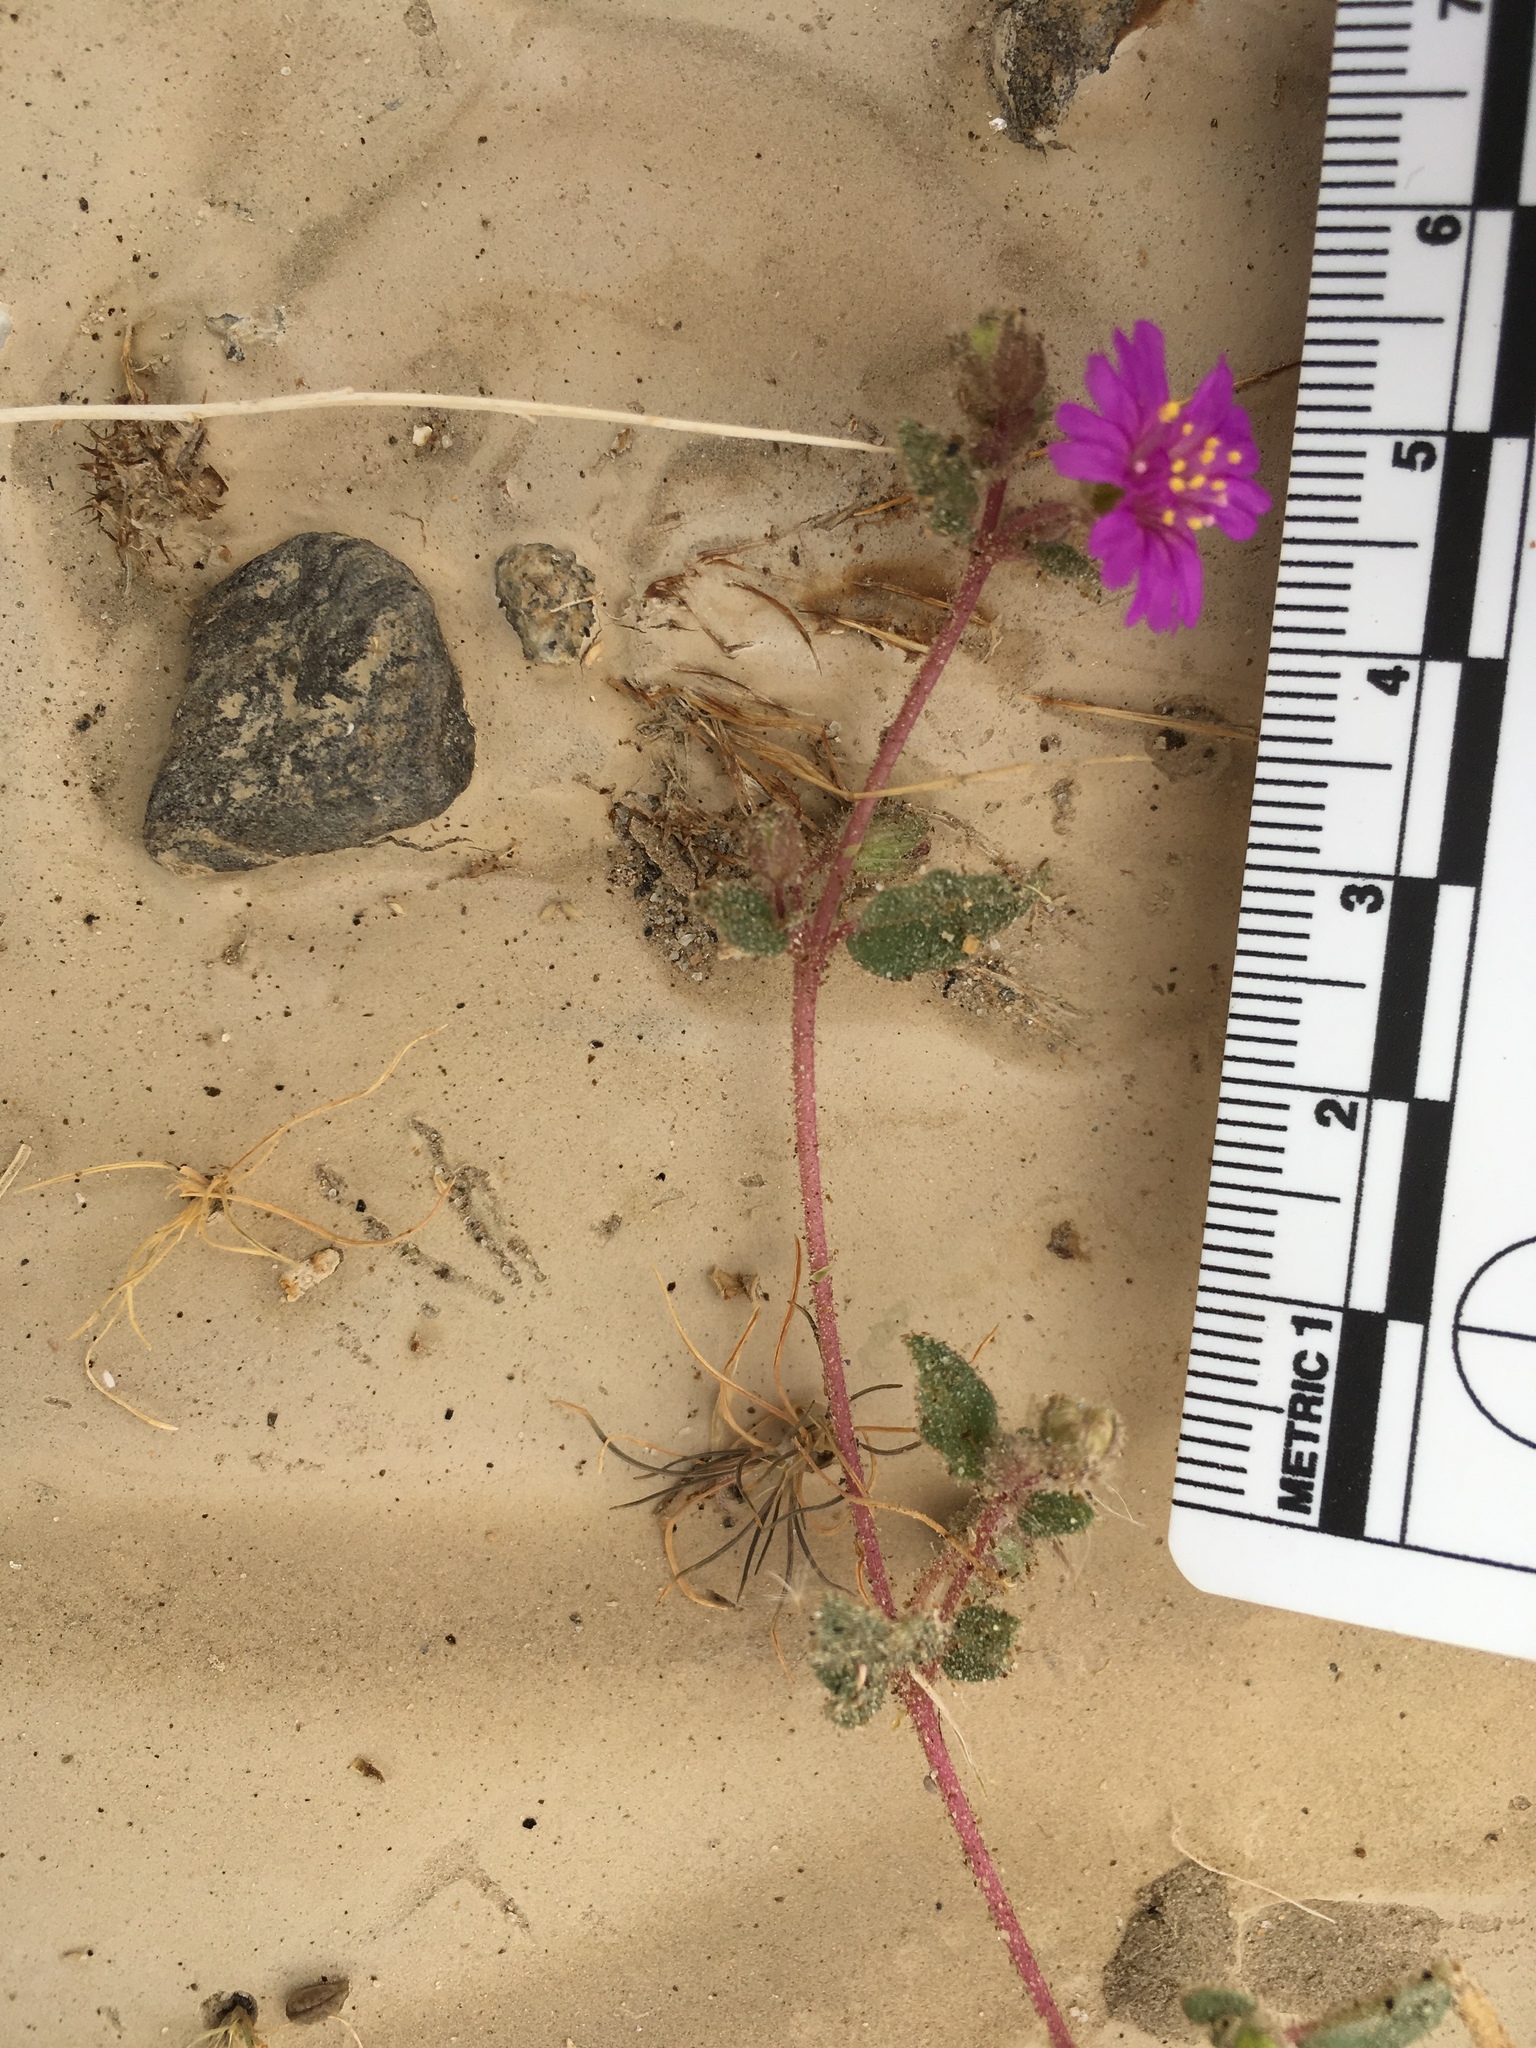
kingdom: Plantae
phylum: Tracheophyta
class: Magnoliopsida
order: Caryophyllales
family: Nyctaginaceae
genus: Allionia
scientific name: Allionia incarnata
